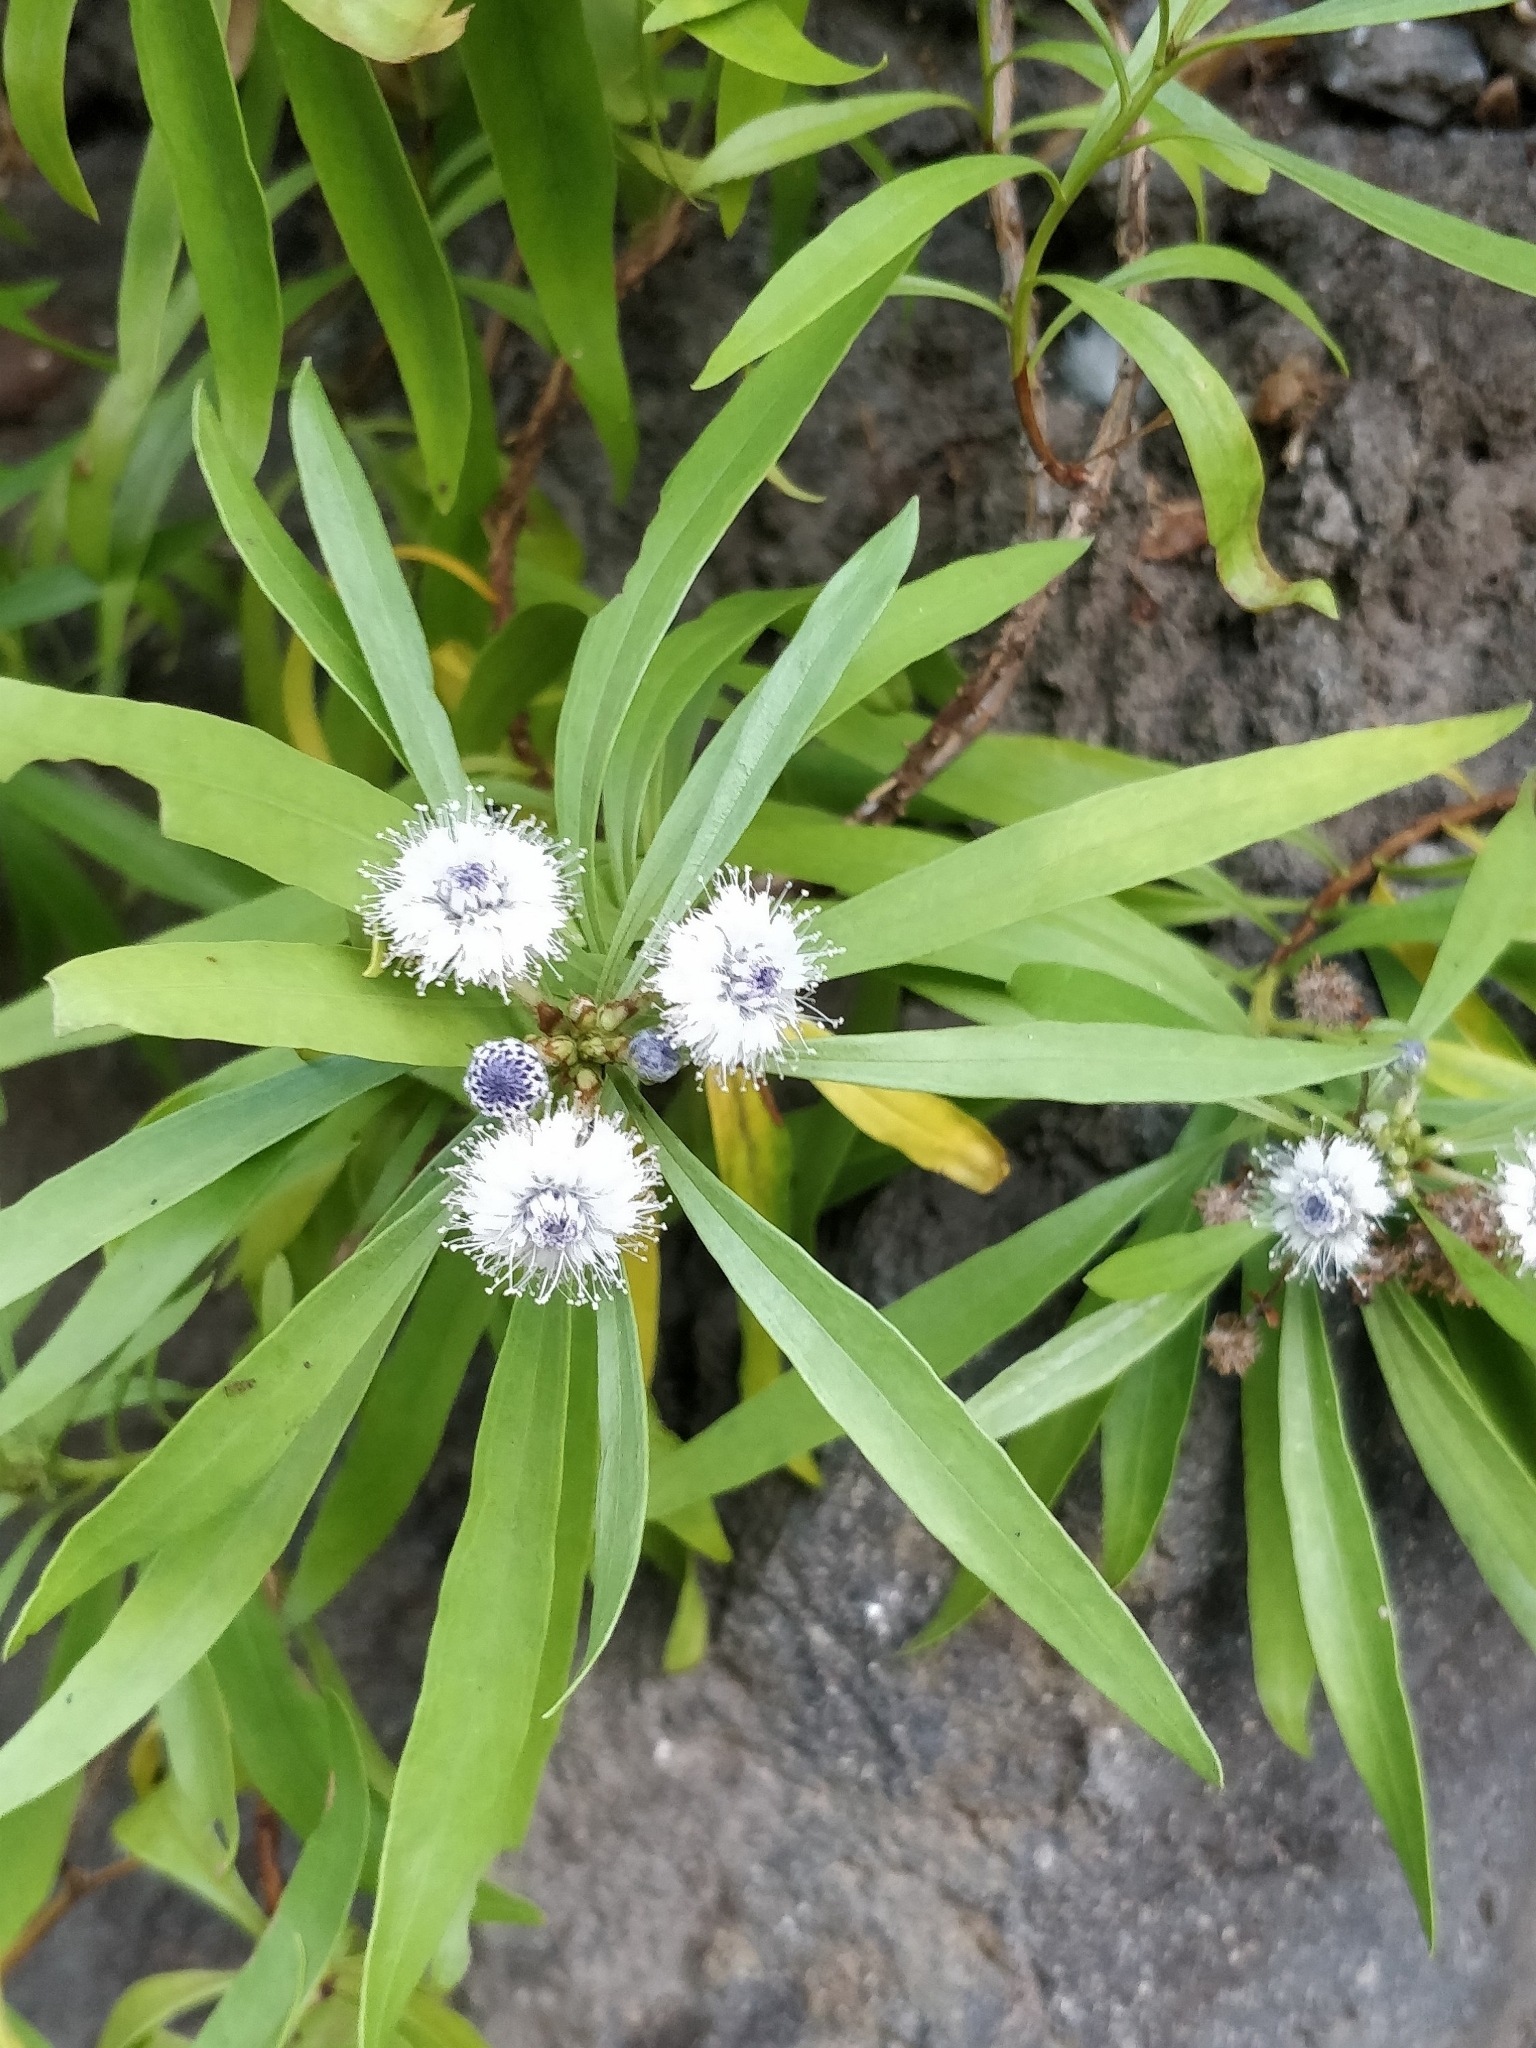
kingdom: Plantae
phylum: Tracheophyta
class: Magnoliopsida
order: Lamiales
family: Plantaginaceae
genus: Globularia
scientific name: Globularia salicina
